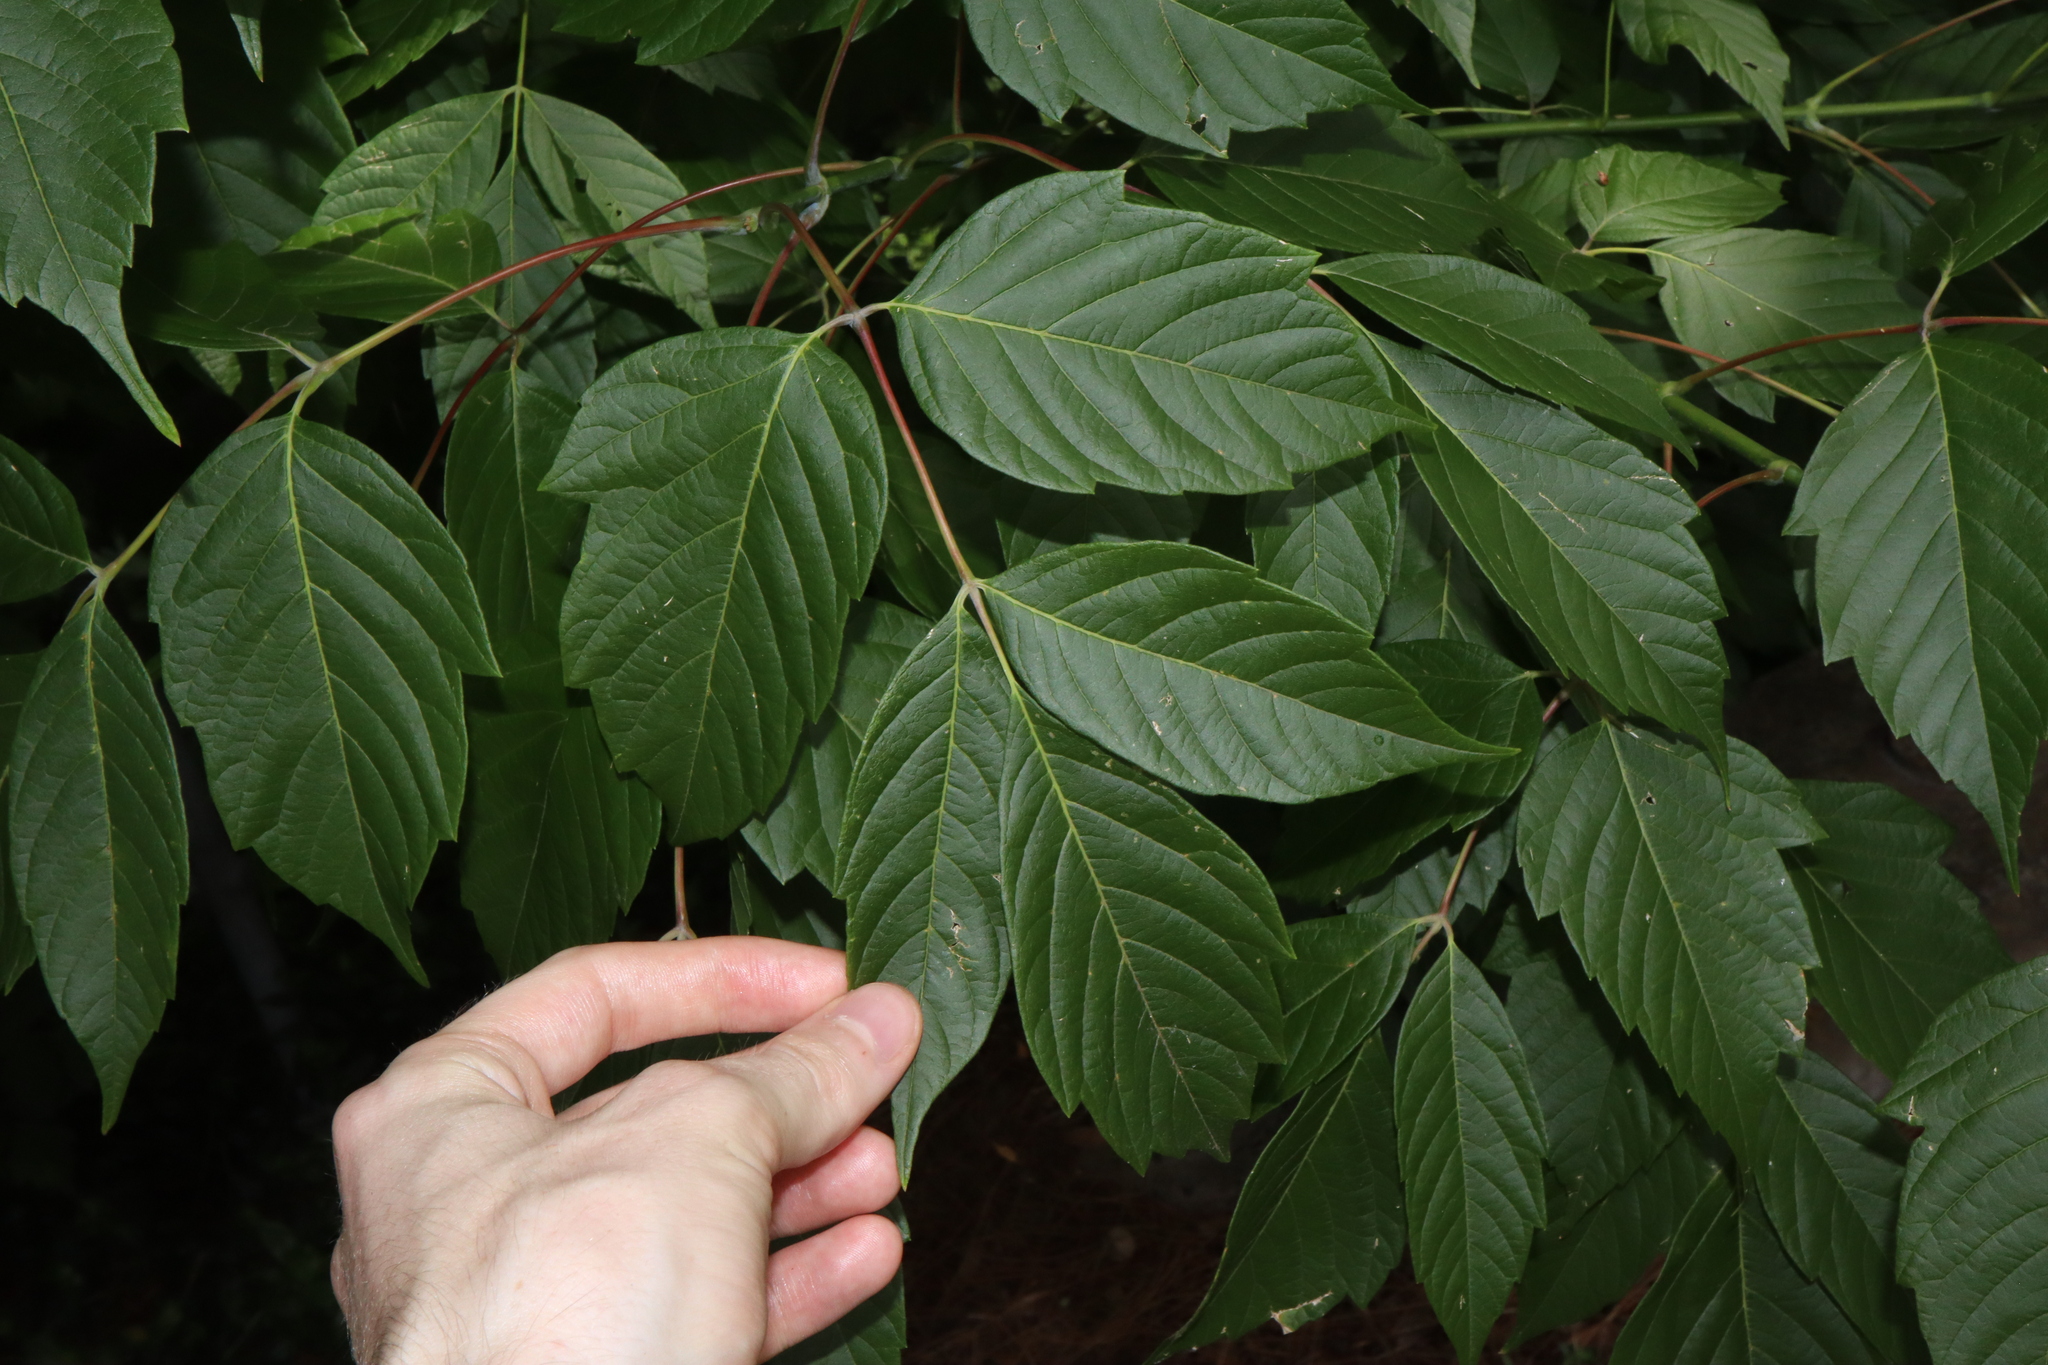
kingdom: Plantae
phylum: Tracheophyta
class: Magnoliopsida
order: Sapindales
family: Sapindaceae
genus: Acer
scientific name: Acer negundo
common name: Ashleaf maple
